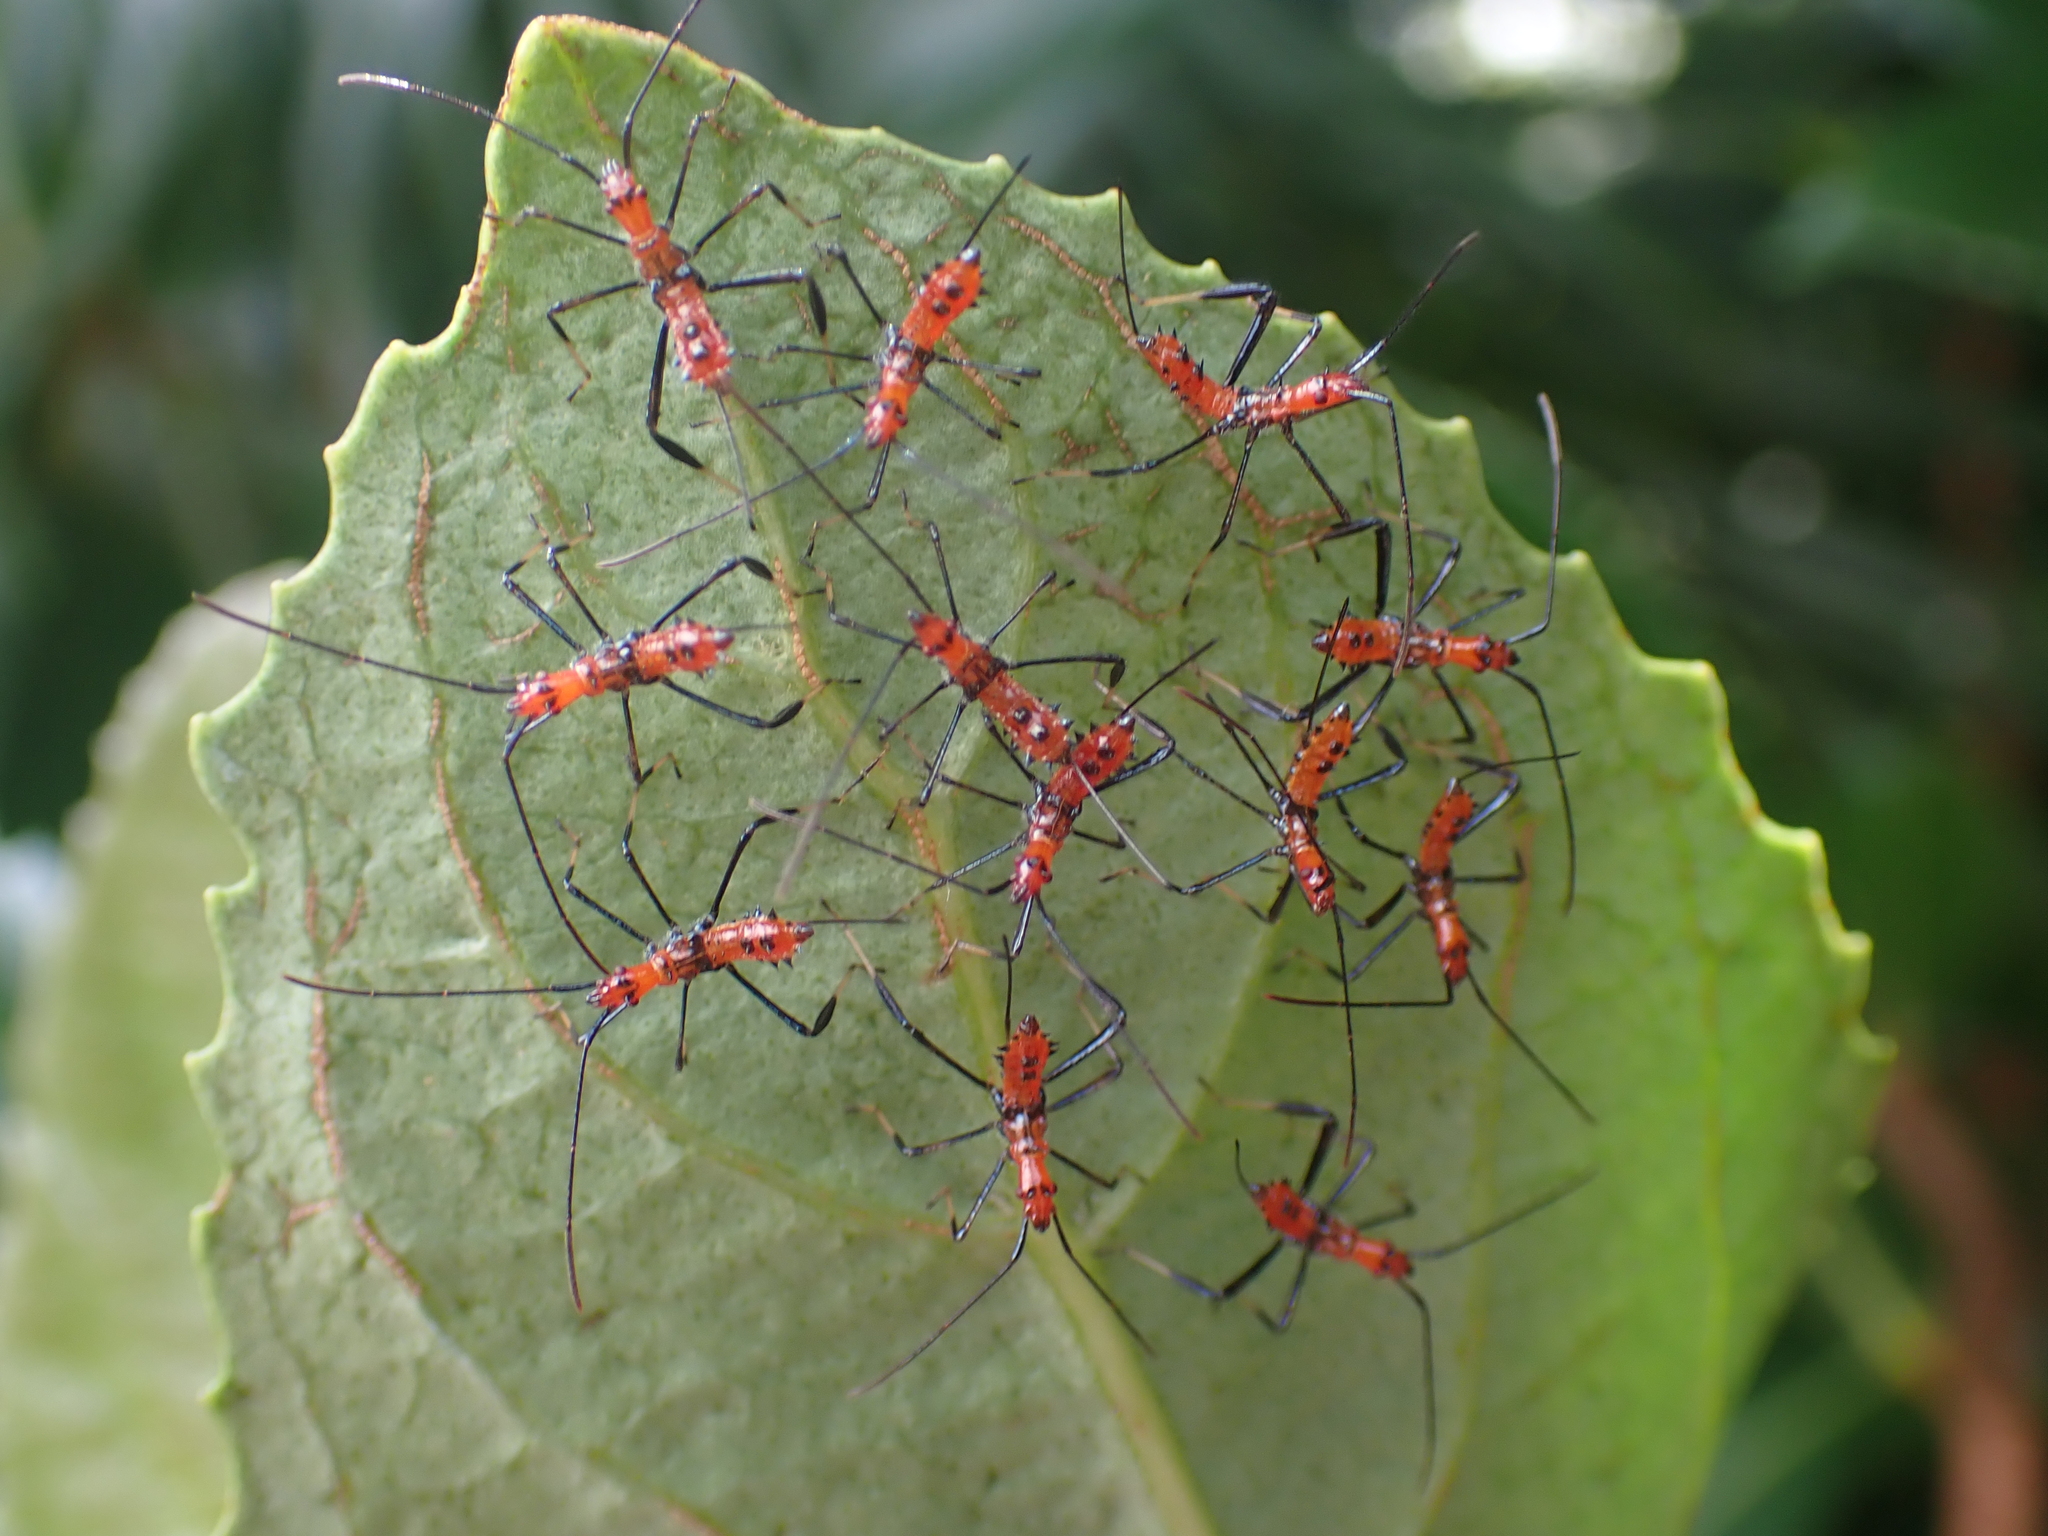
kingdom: Animalia
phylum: Arthropoda
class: Insecta
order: Hemiptera
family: Coreidae
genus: Leptoglossus
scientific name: Leptoglossus fulvicornis
